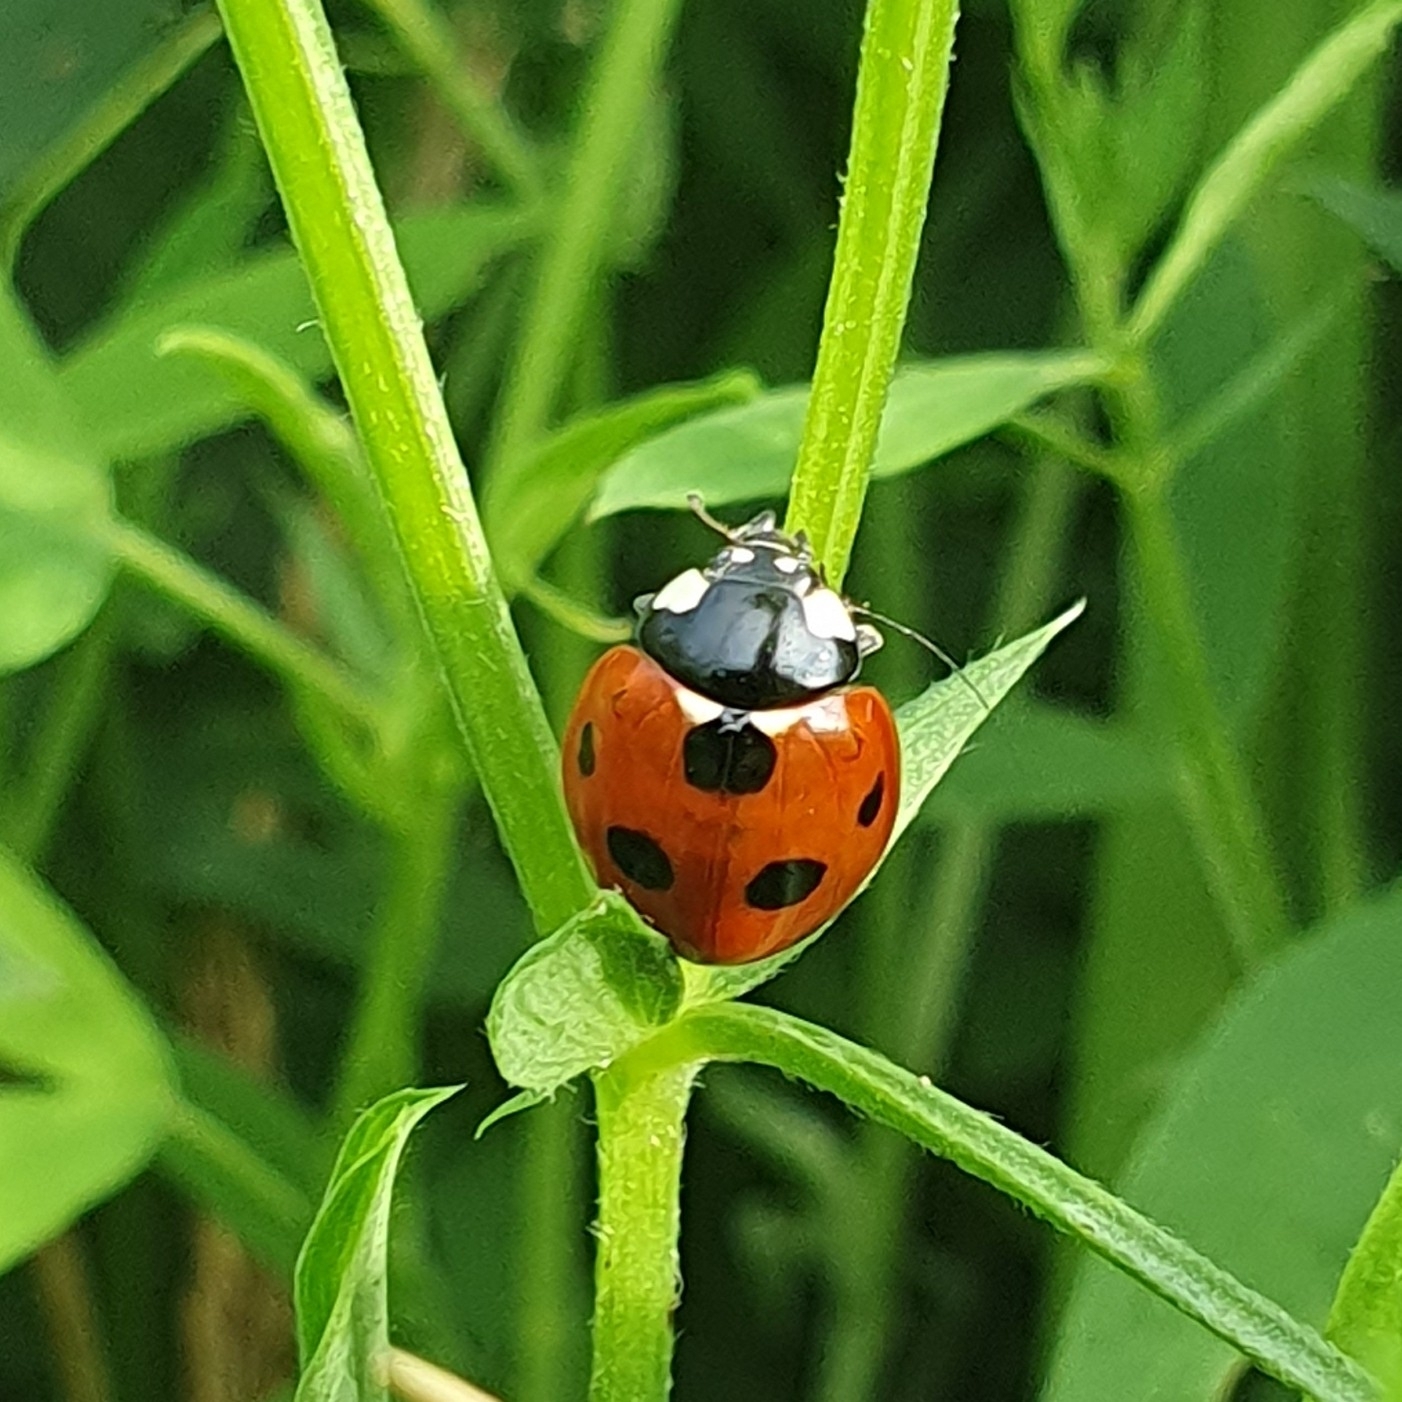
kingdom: Animalia
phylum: Arthropoda
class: Insecta
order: Coleoptera
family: Coccinellidae
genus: Coccinella
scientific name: Coccinella septempunctata
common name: Sevenspotted lady beetle
